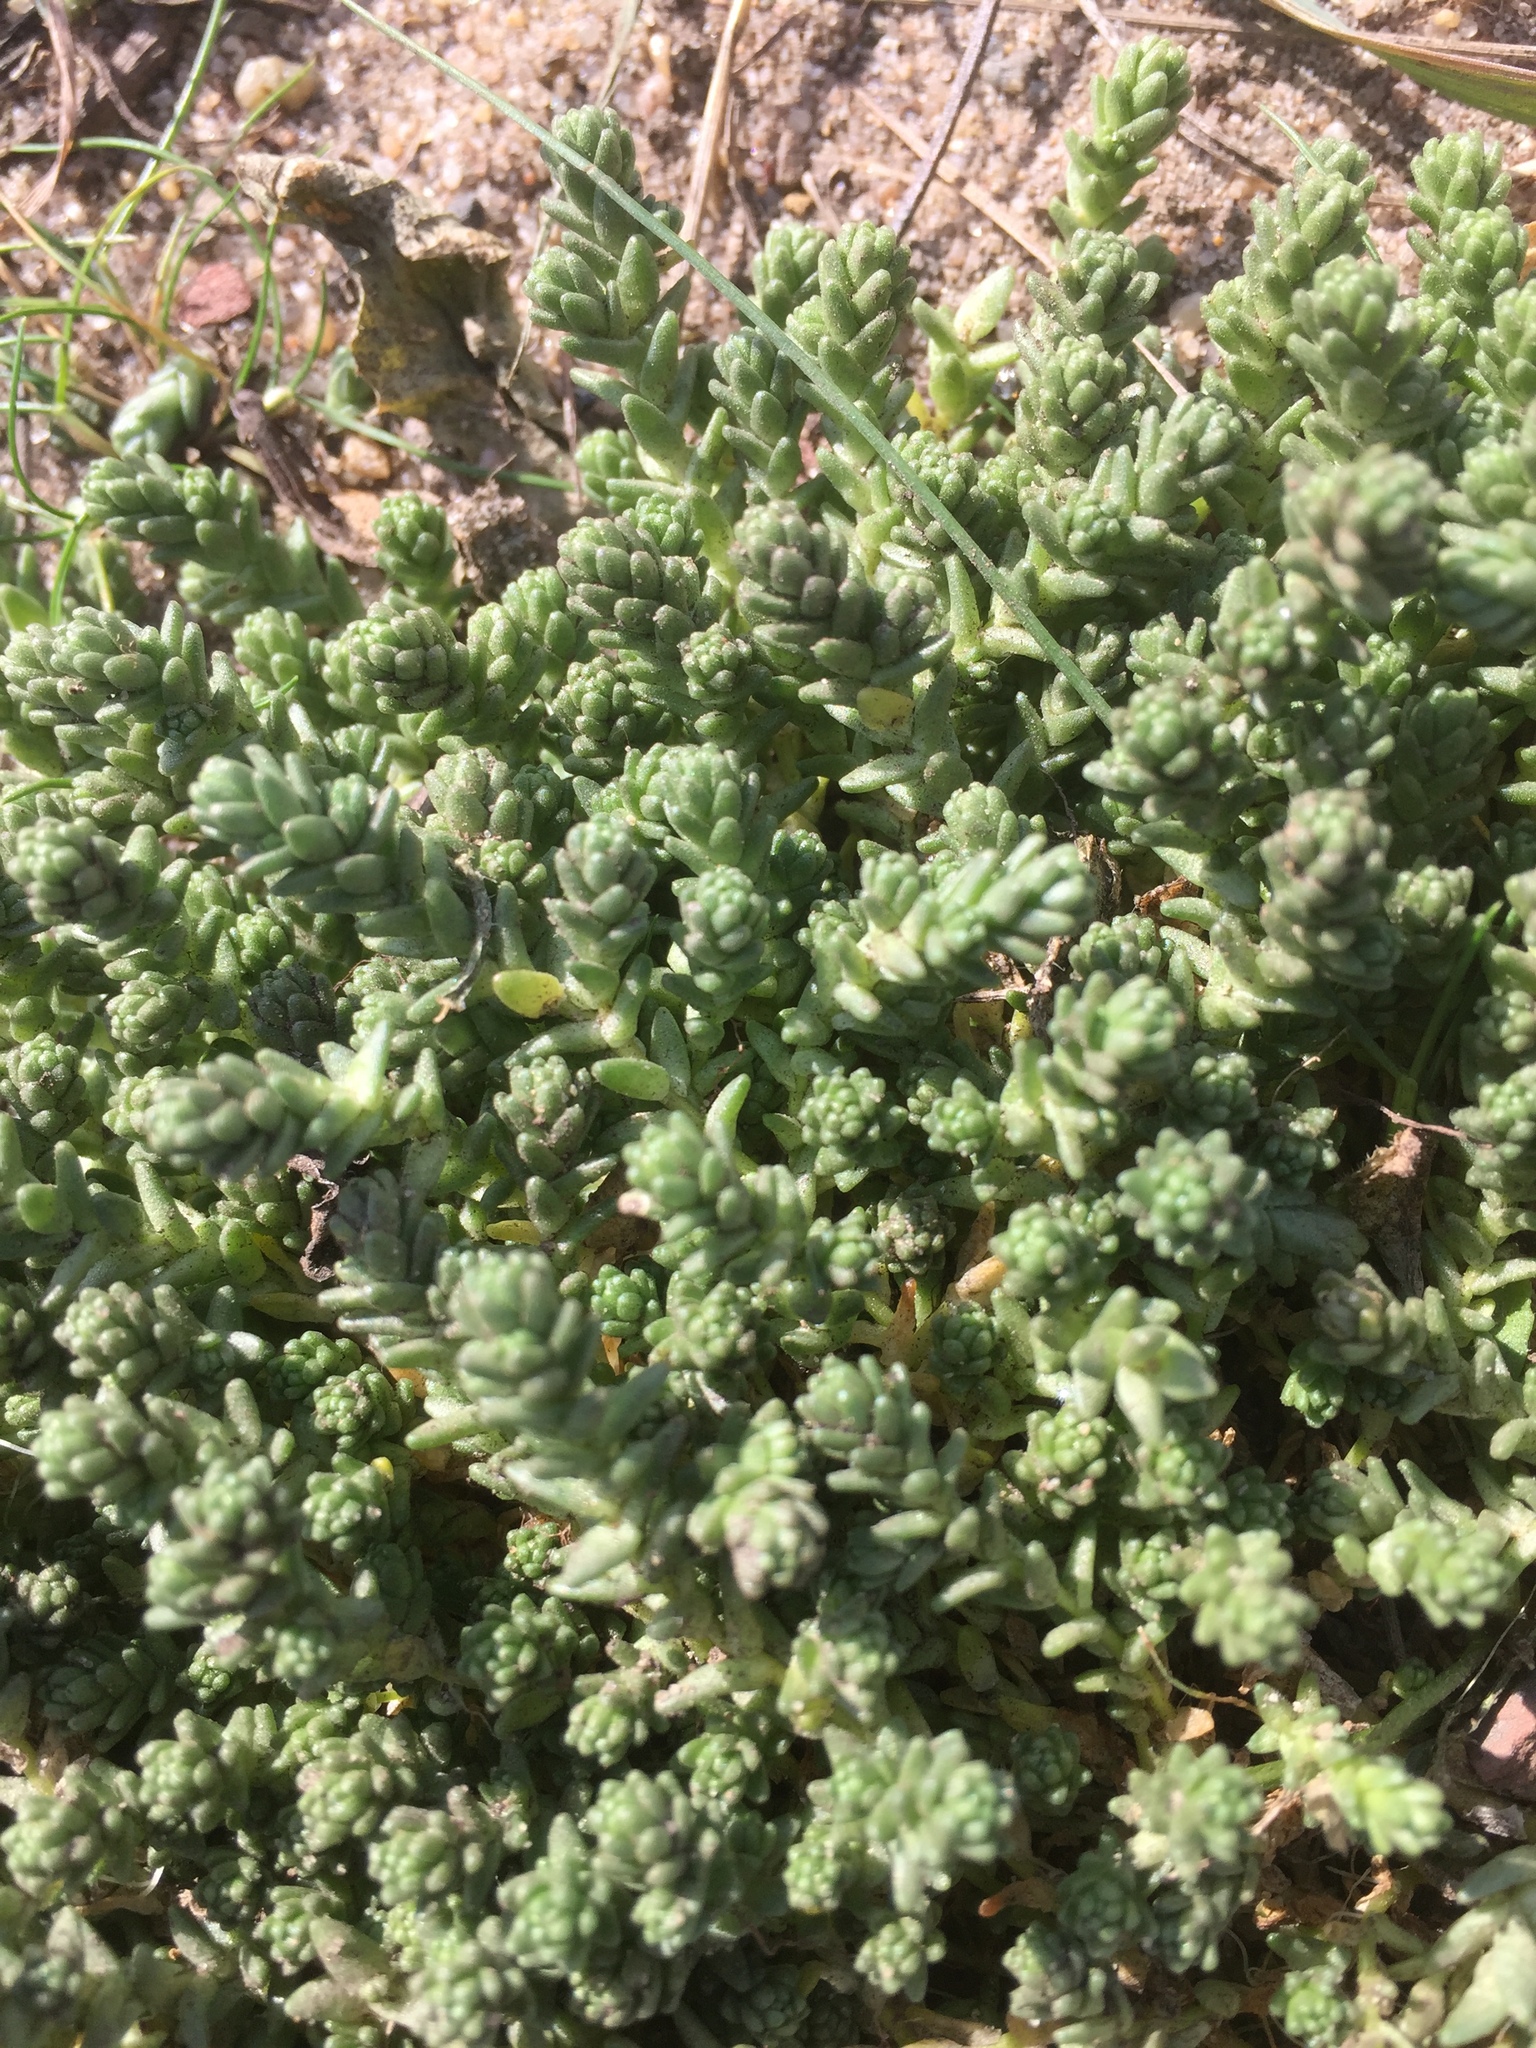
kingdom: Plantae
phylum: Tracheophyta
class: Magnoliopsida
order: Saxifragales
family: Crassulaceae
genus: Sedum
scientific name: Sedum acre
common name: Biting stonecrop
